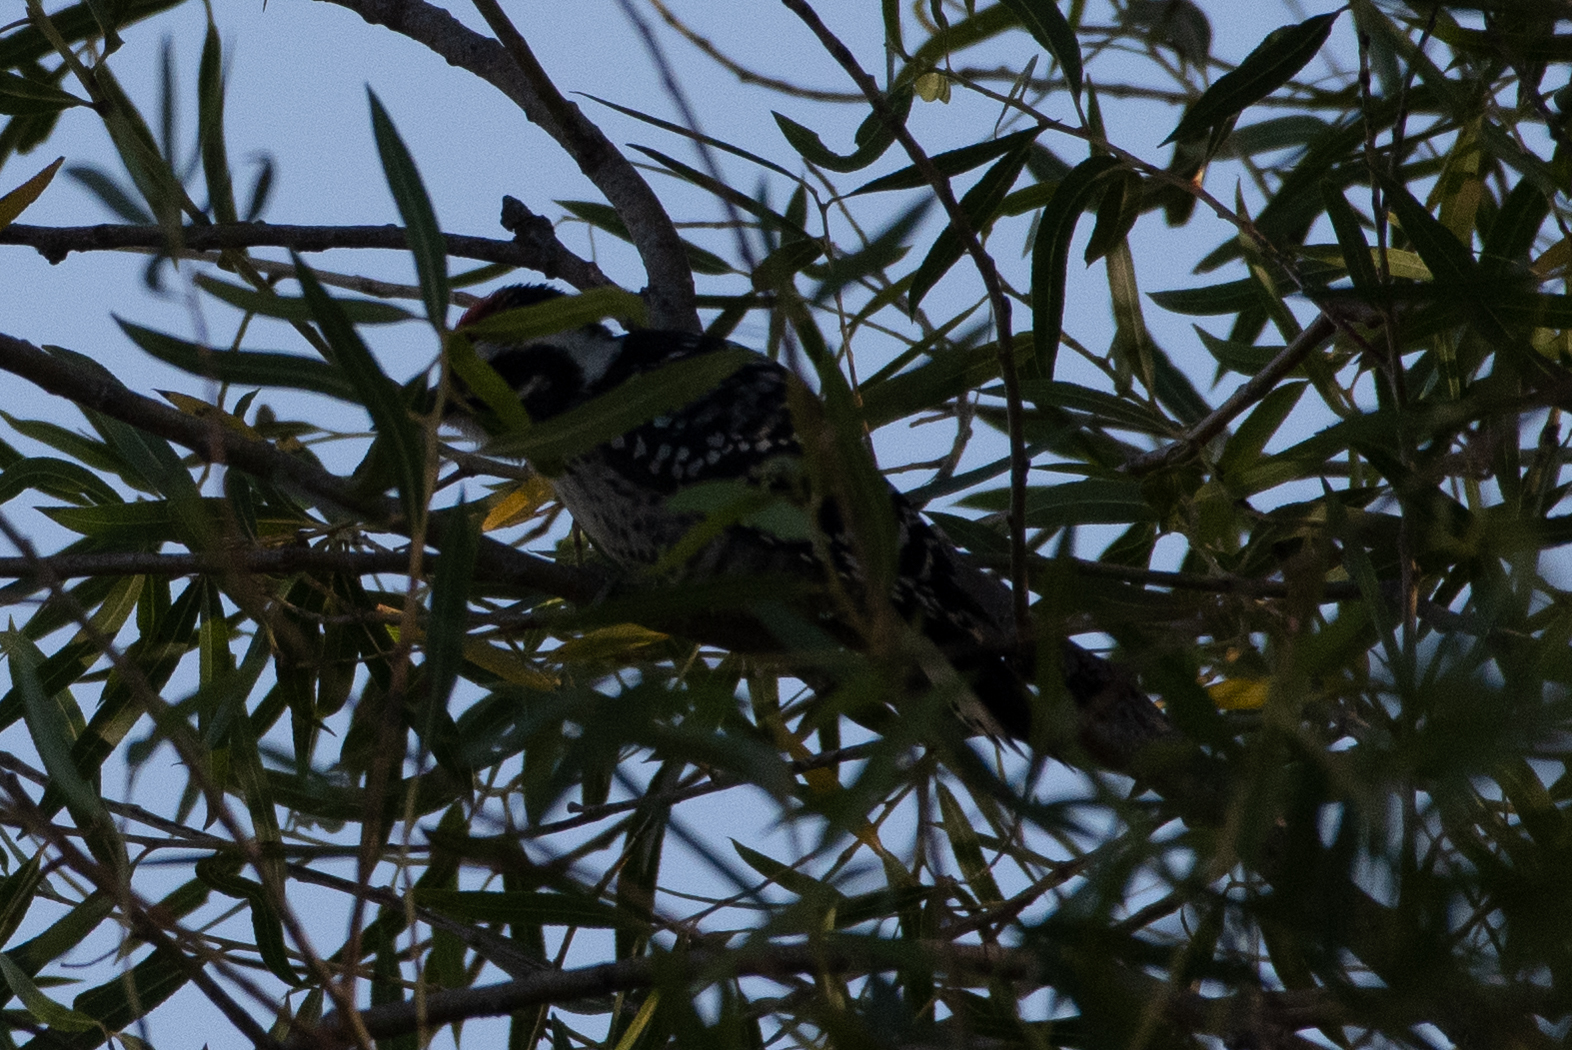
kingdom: Animalia
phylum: Chordata
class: Aves
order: Piciformes
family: Picidae
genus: Dryobates
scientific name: Dryobates nuttallii
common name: Nuttall's woodpecker
